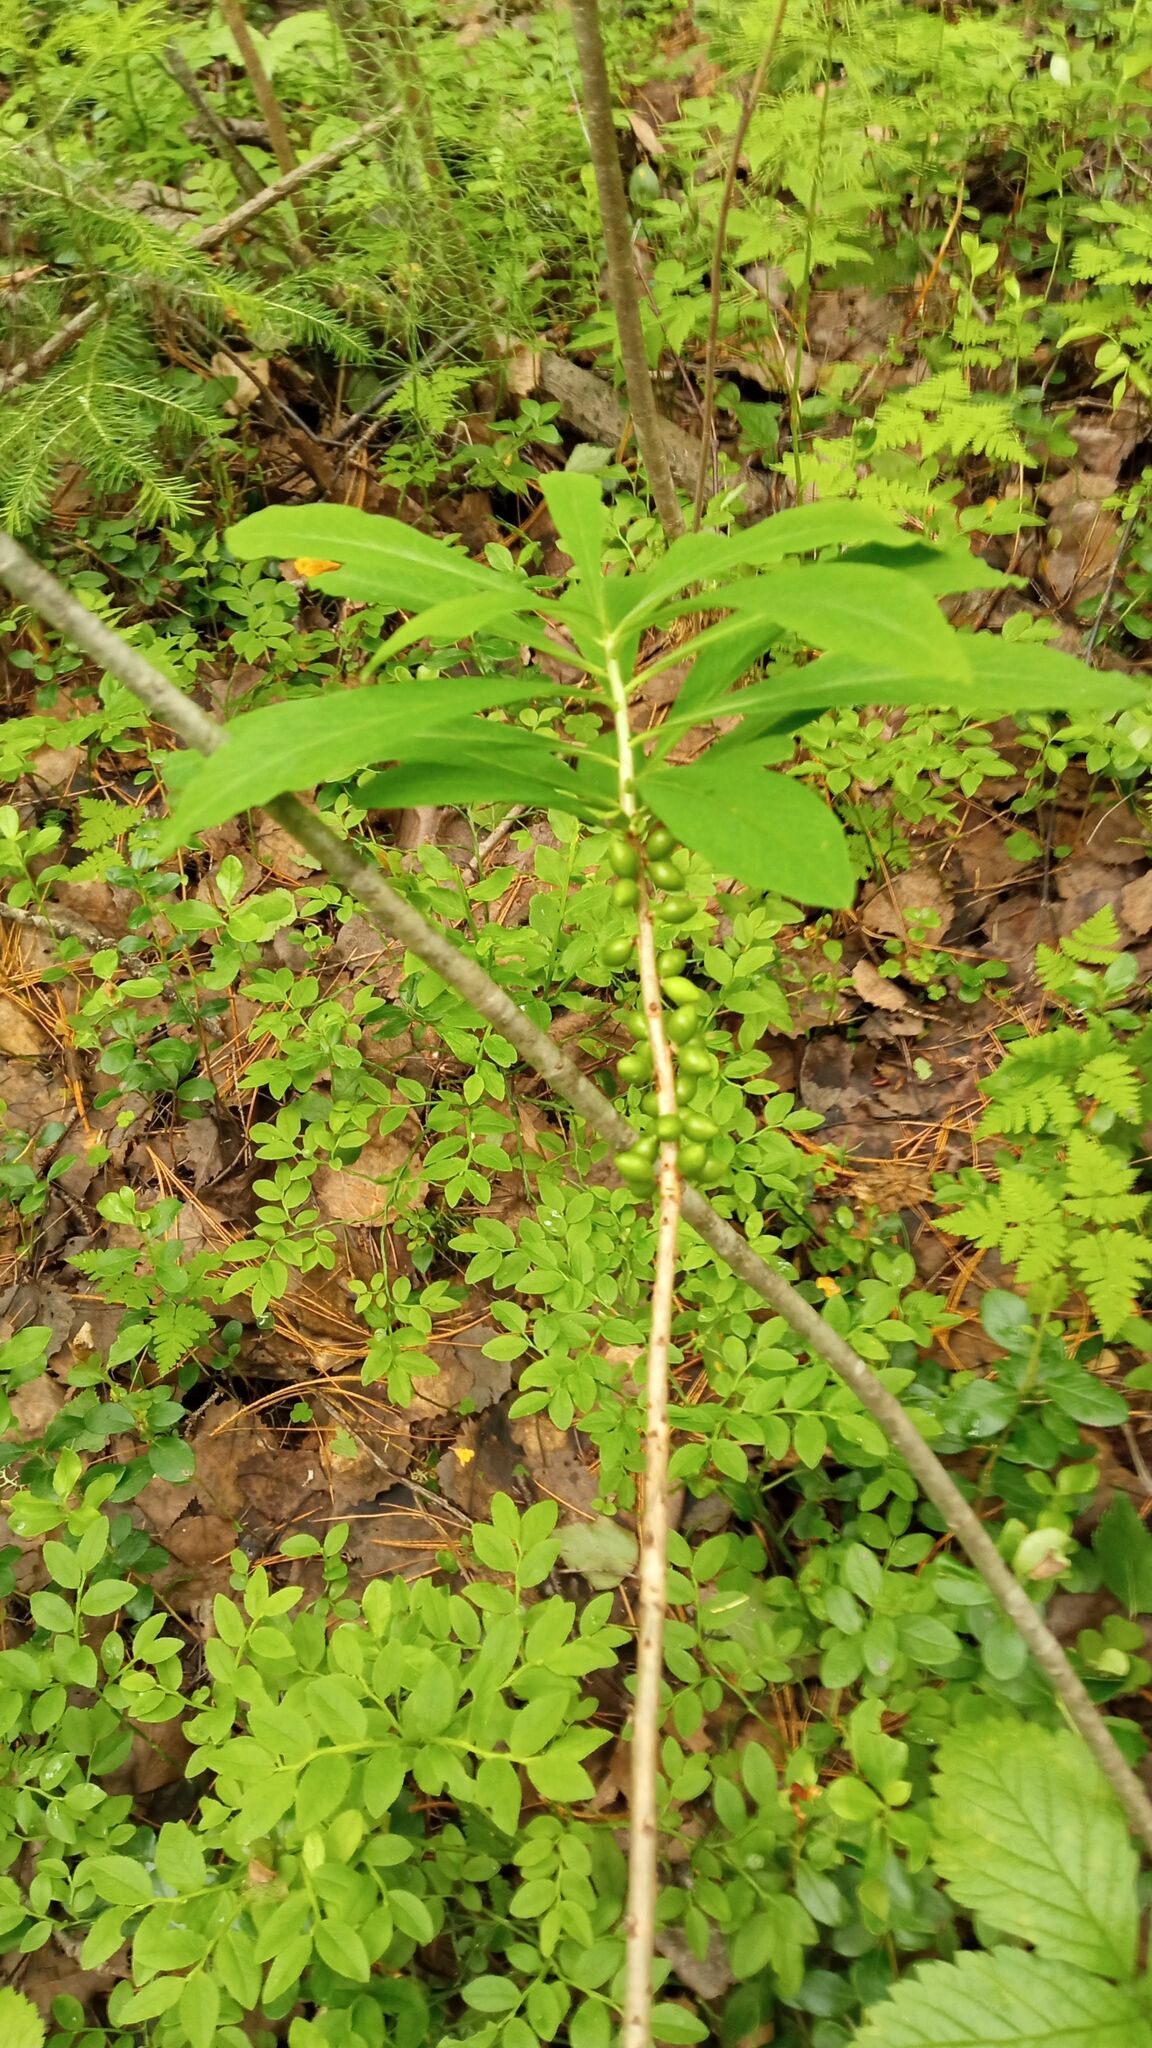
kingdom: Plantae
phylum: Tracheophyta
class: Magnoliopsida
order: Malvales
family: Thymelaeaceae
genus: Daphne
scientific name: Daphne mezereum
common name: Mezereon
